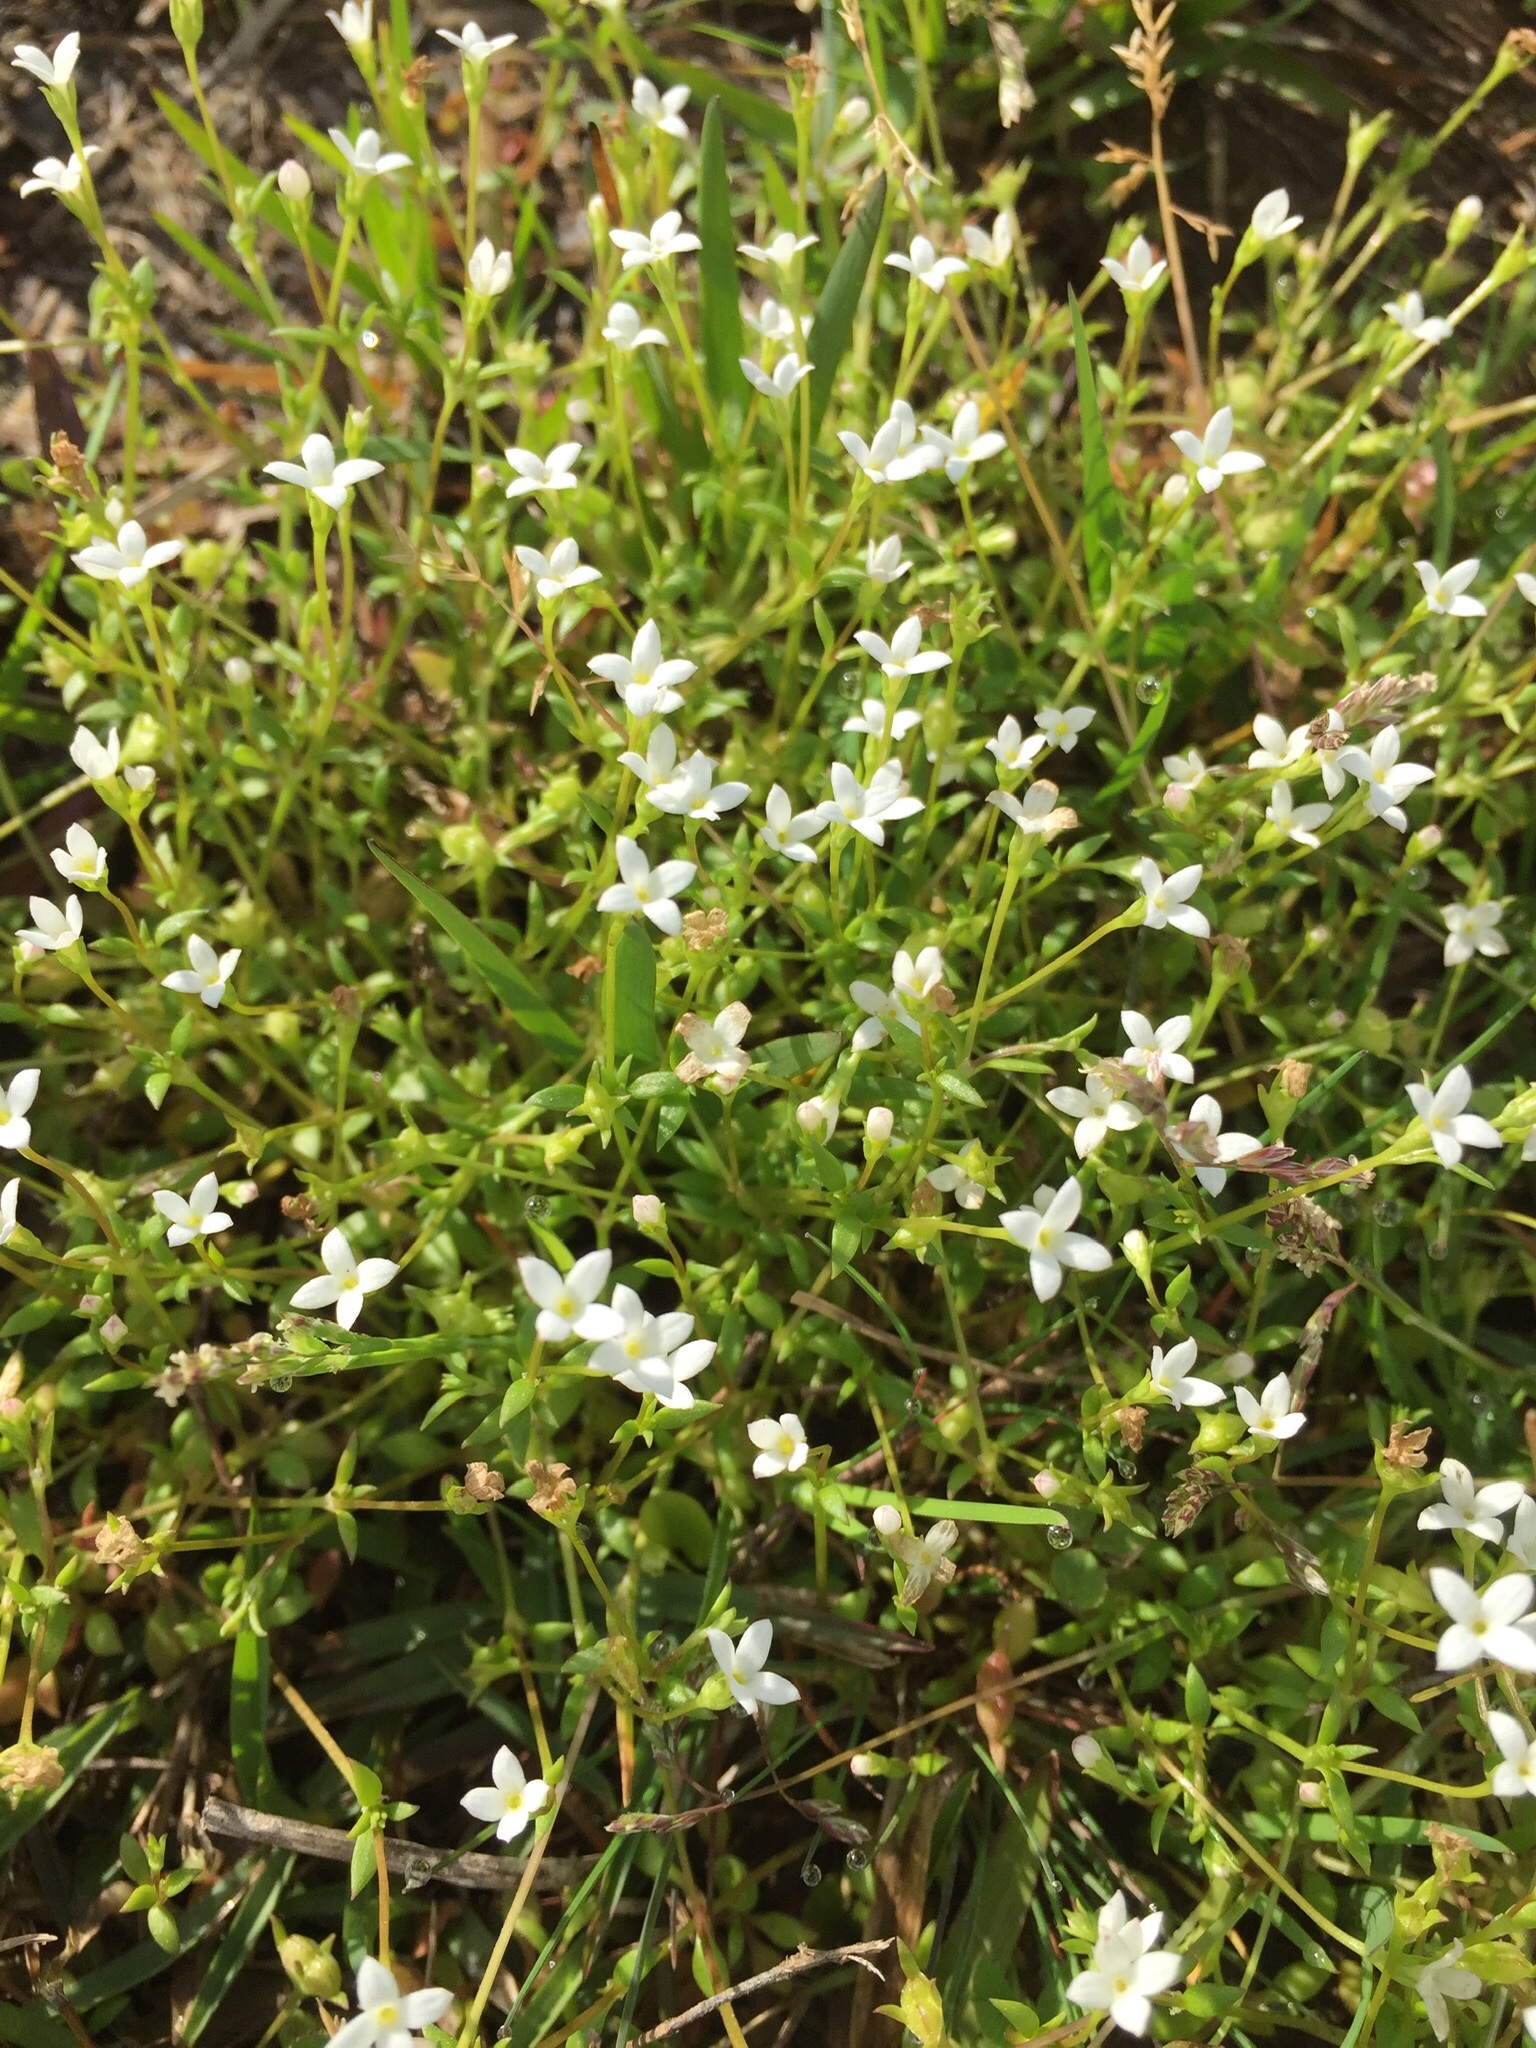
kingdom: Plantae
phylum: Tracheophyta
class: Magnoliopsida
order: Gentianales
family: Rubiaceae
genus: Houstonia
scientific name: Houstonia micrantha
